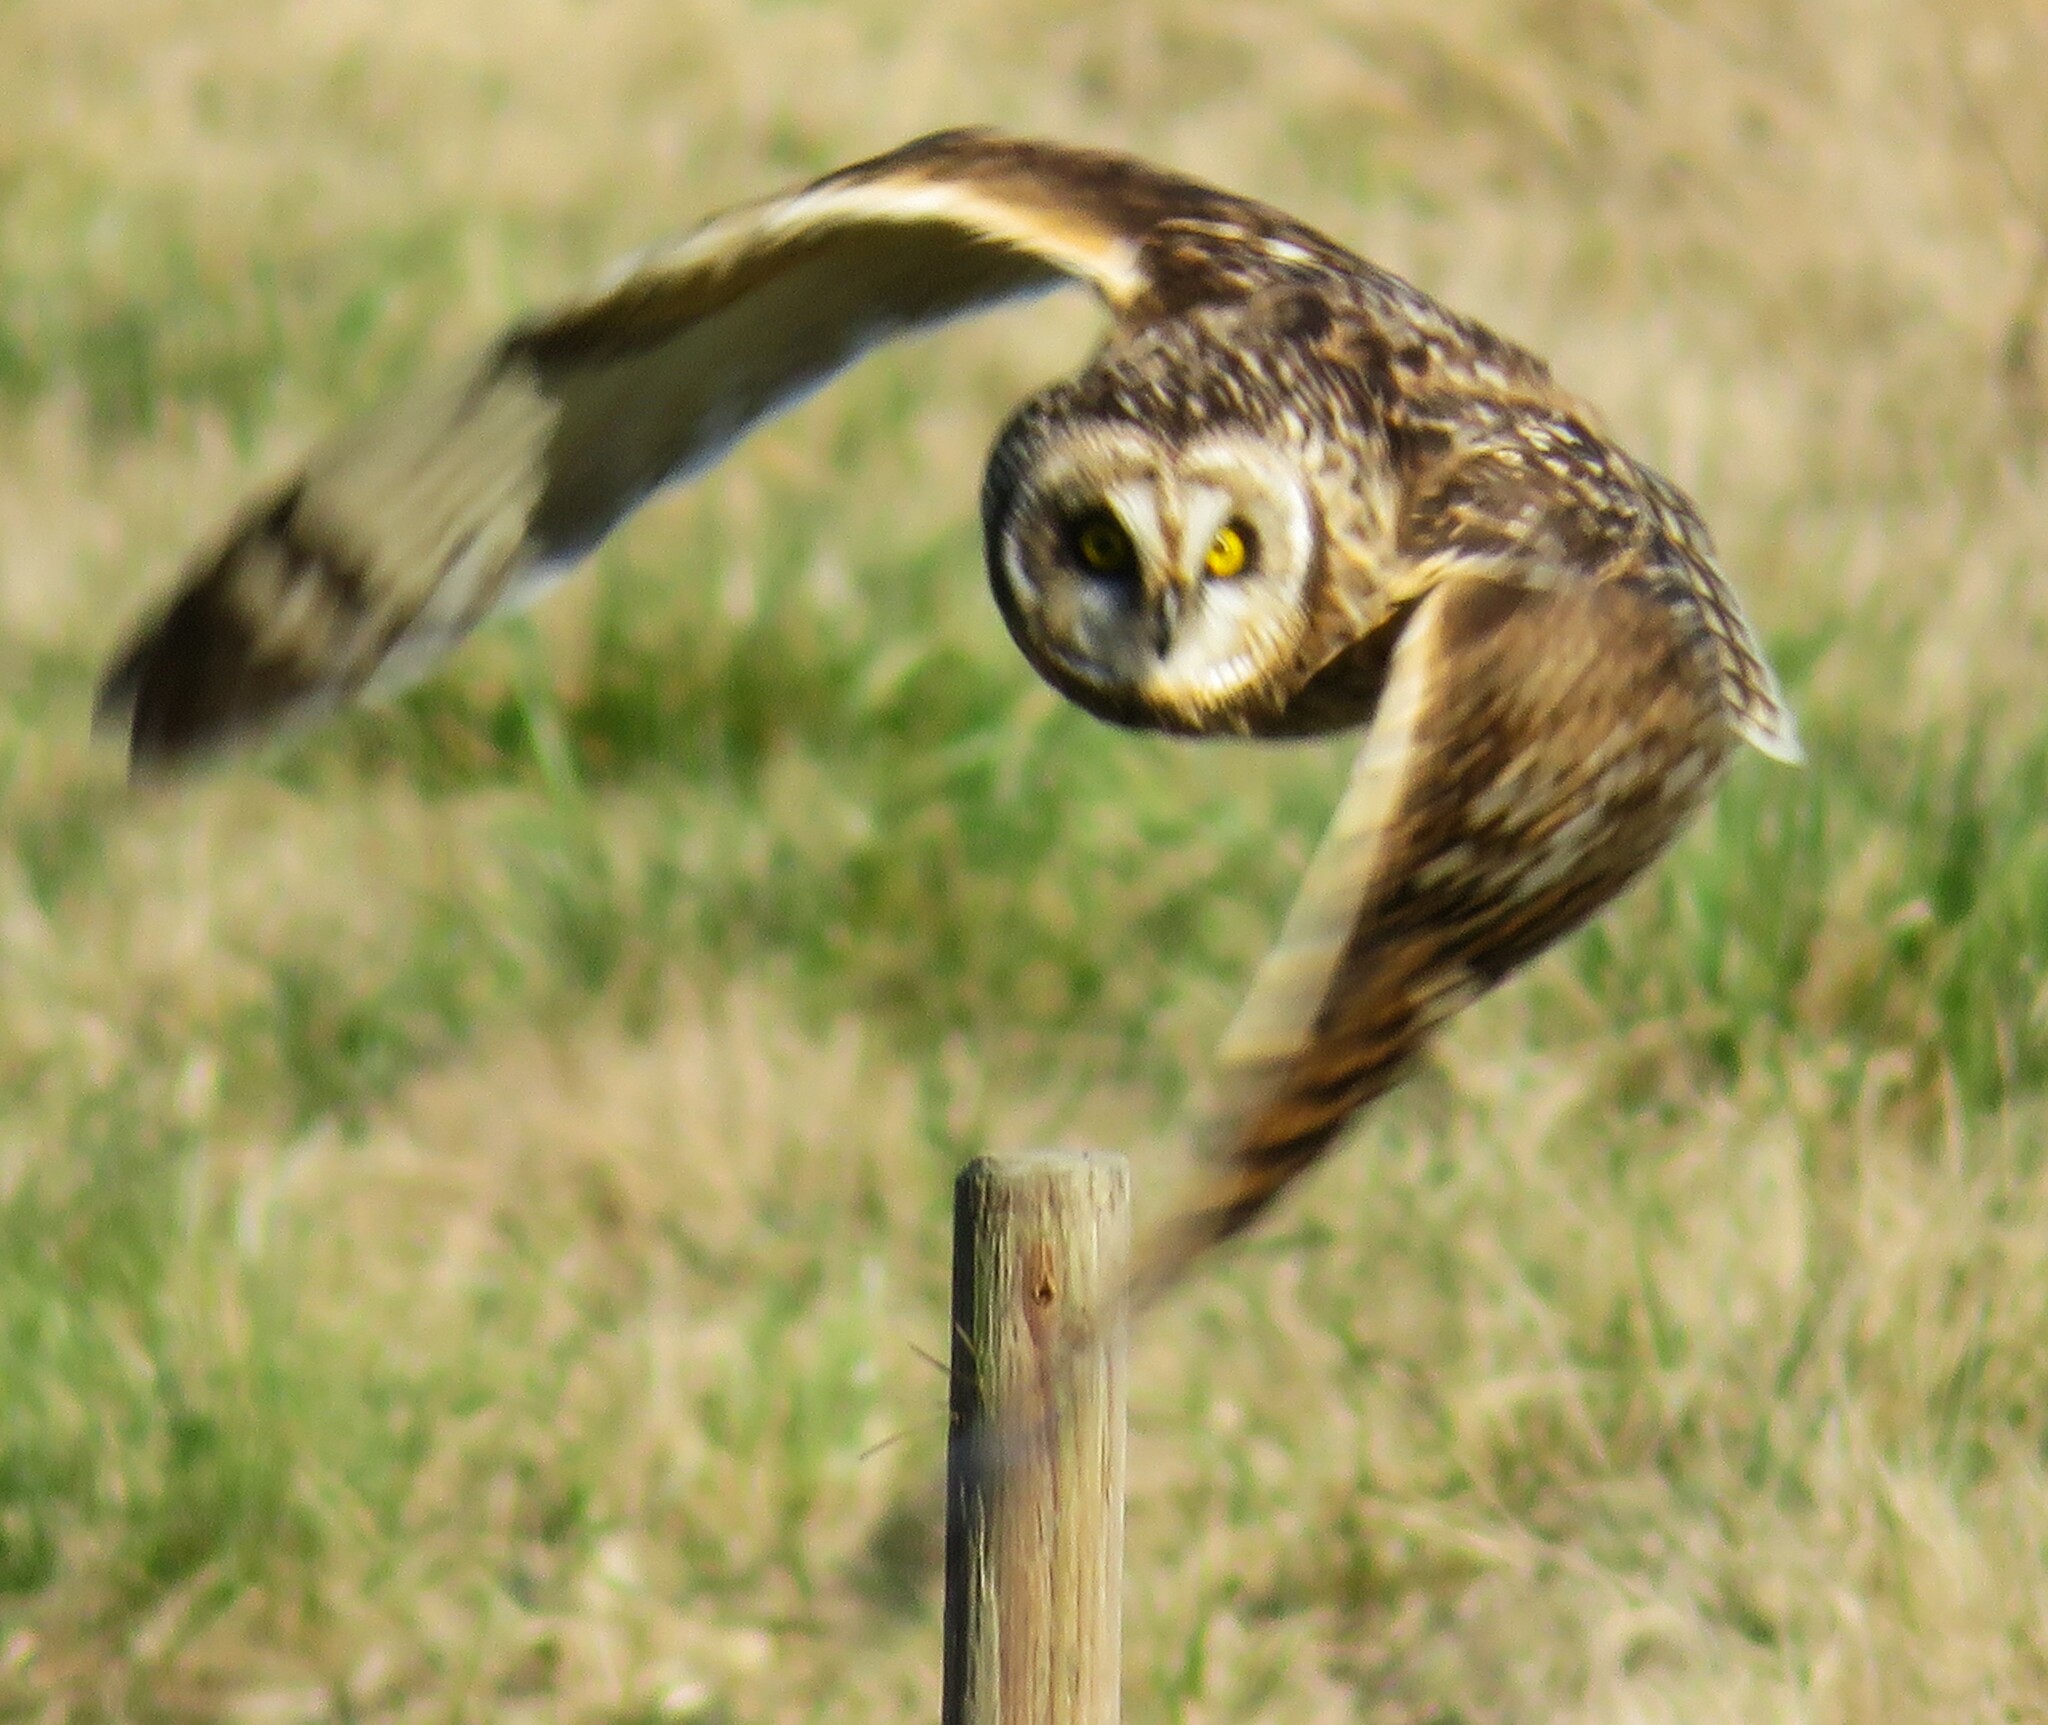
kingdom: Animalia
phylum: Chordata
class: Aves
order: Strigiformes
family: Strigidae
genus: Asio
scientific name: Asio flammeus
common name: Short-eared owl
